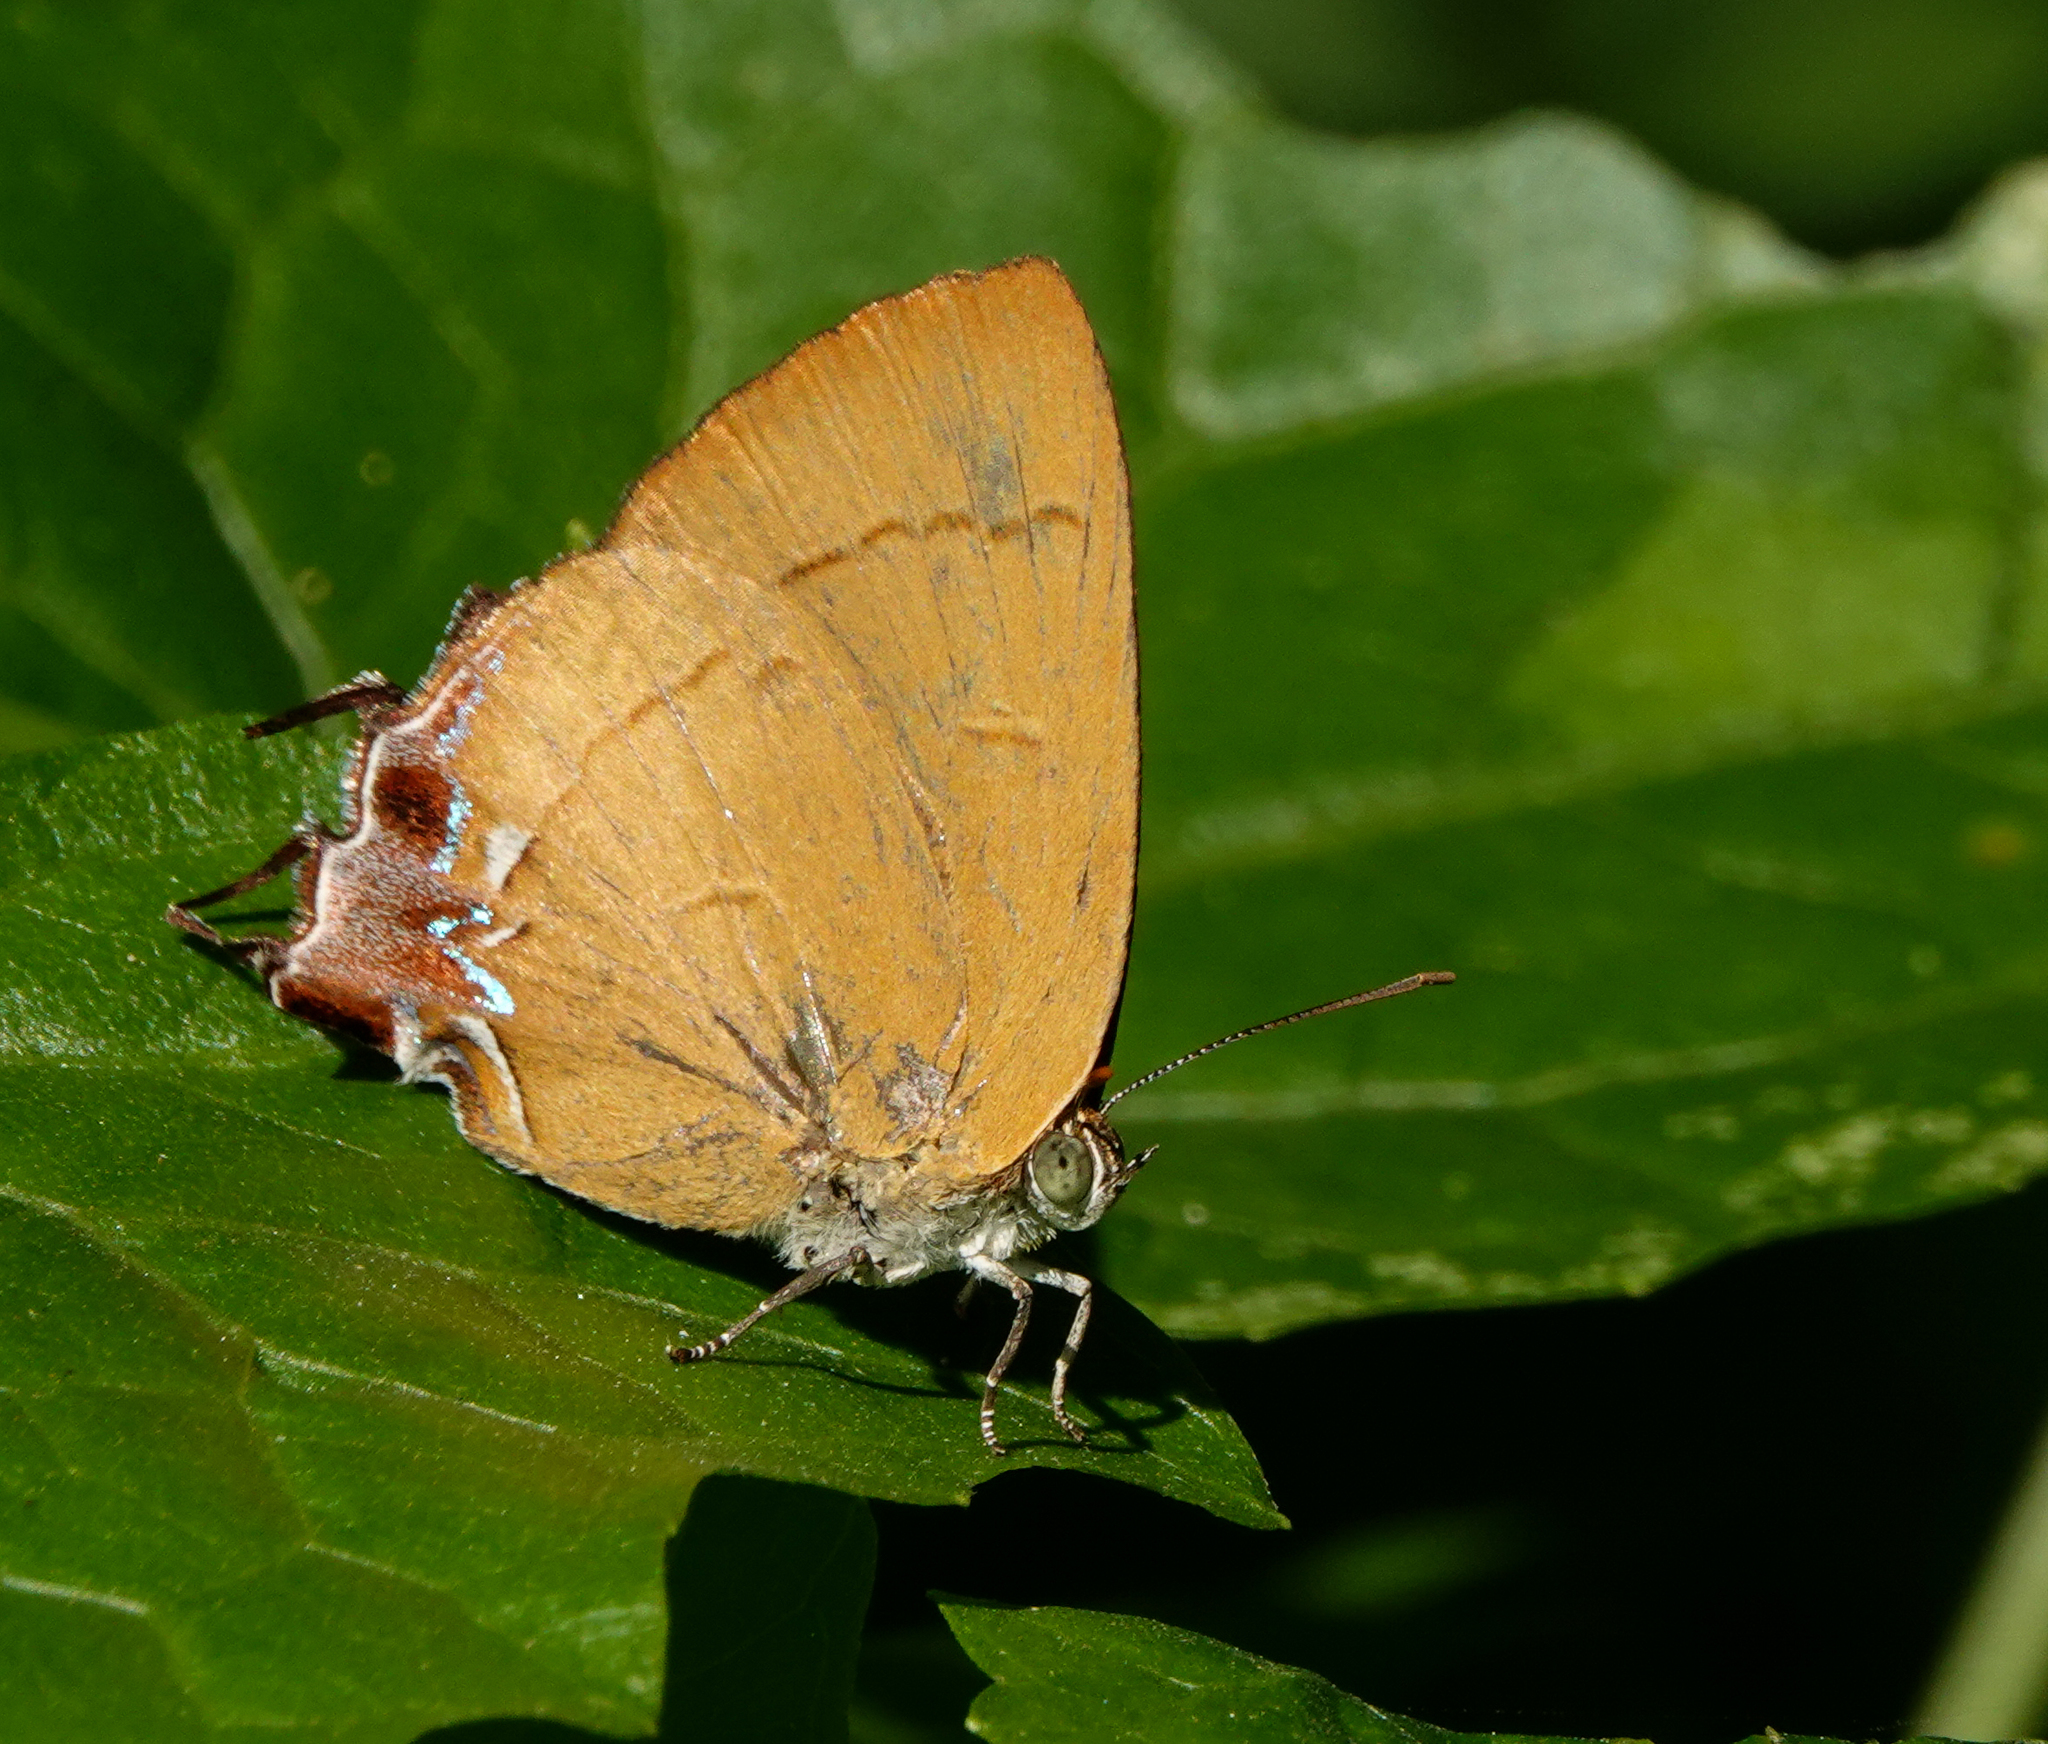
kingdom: Animalia
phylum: Arthropoda
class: Insecta
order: Lepidoptera
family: Lycaenidae
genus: Remelana
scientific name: Remelana jangala
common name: Chocolate royal
